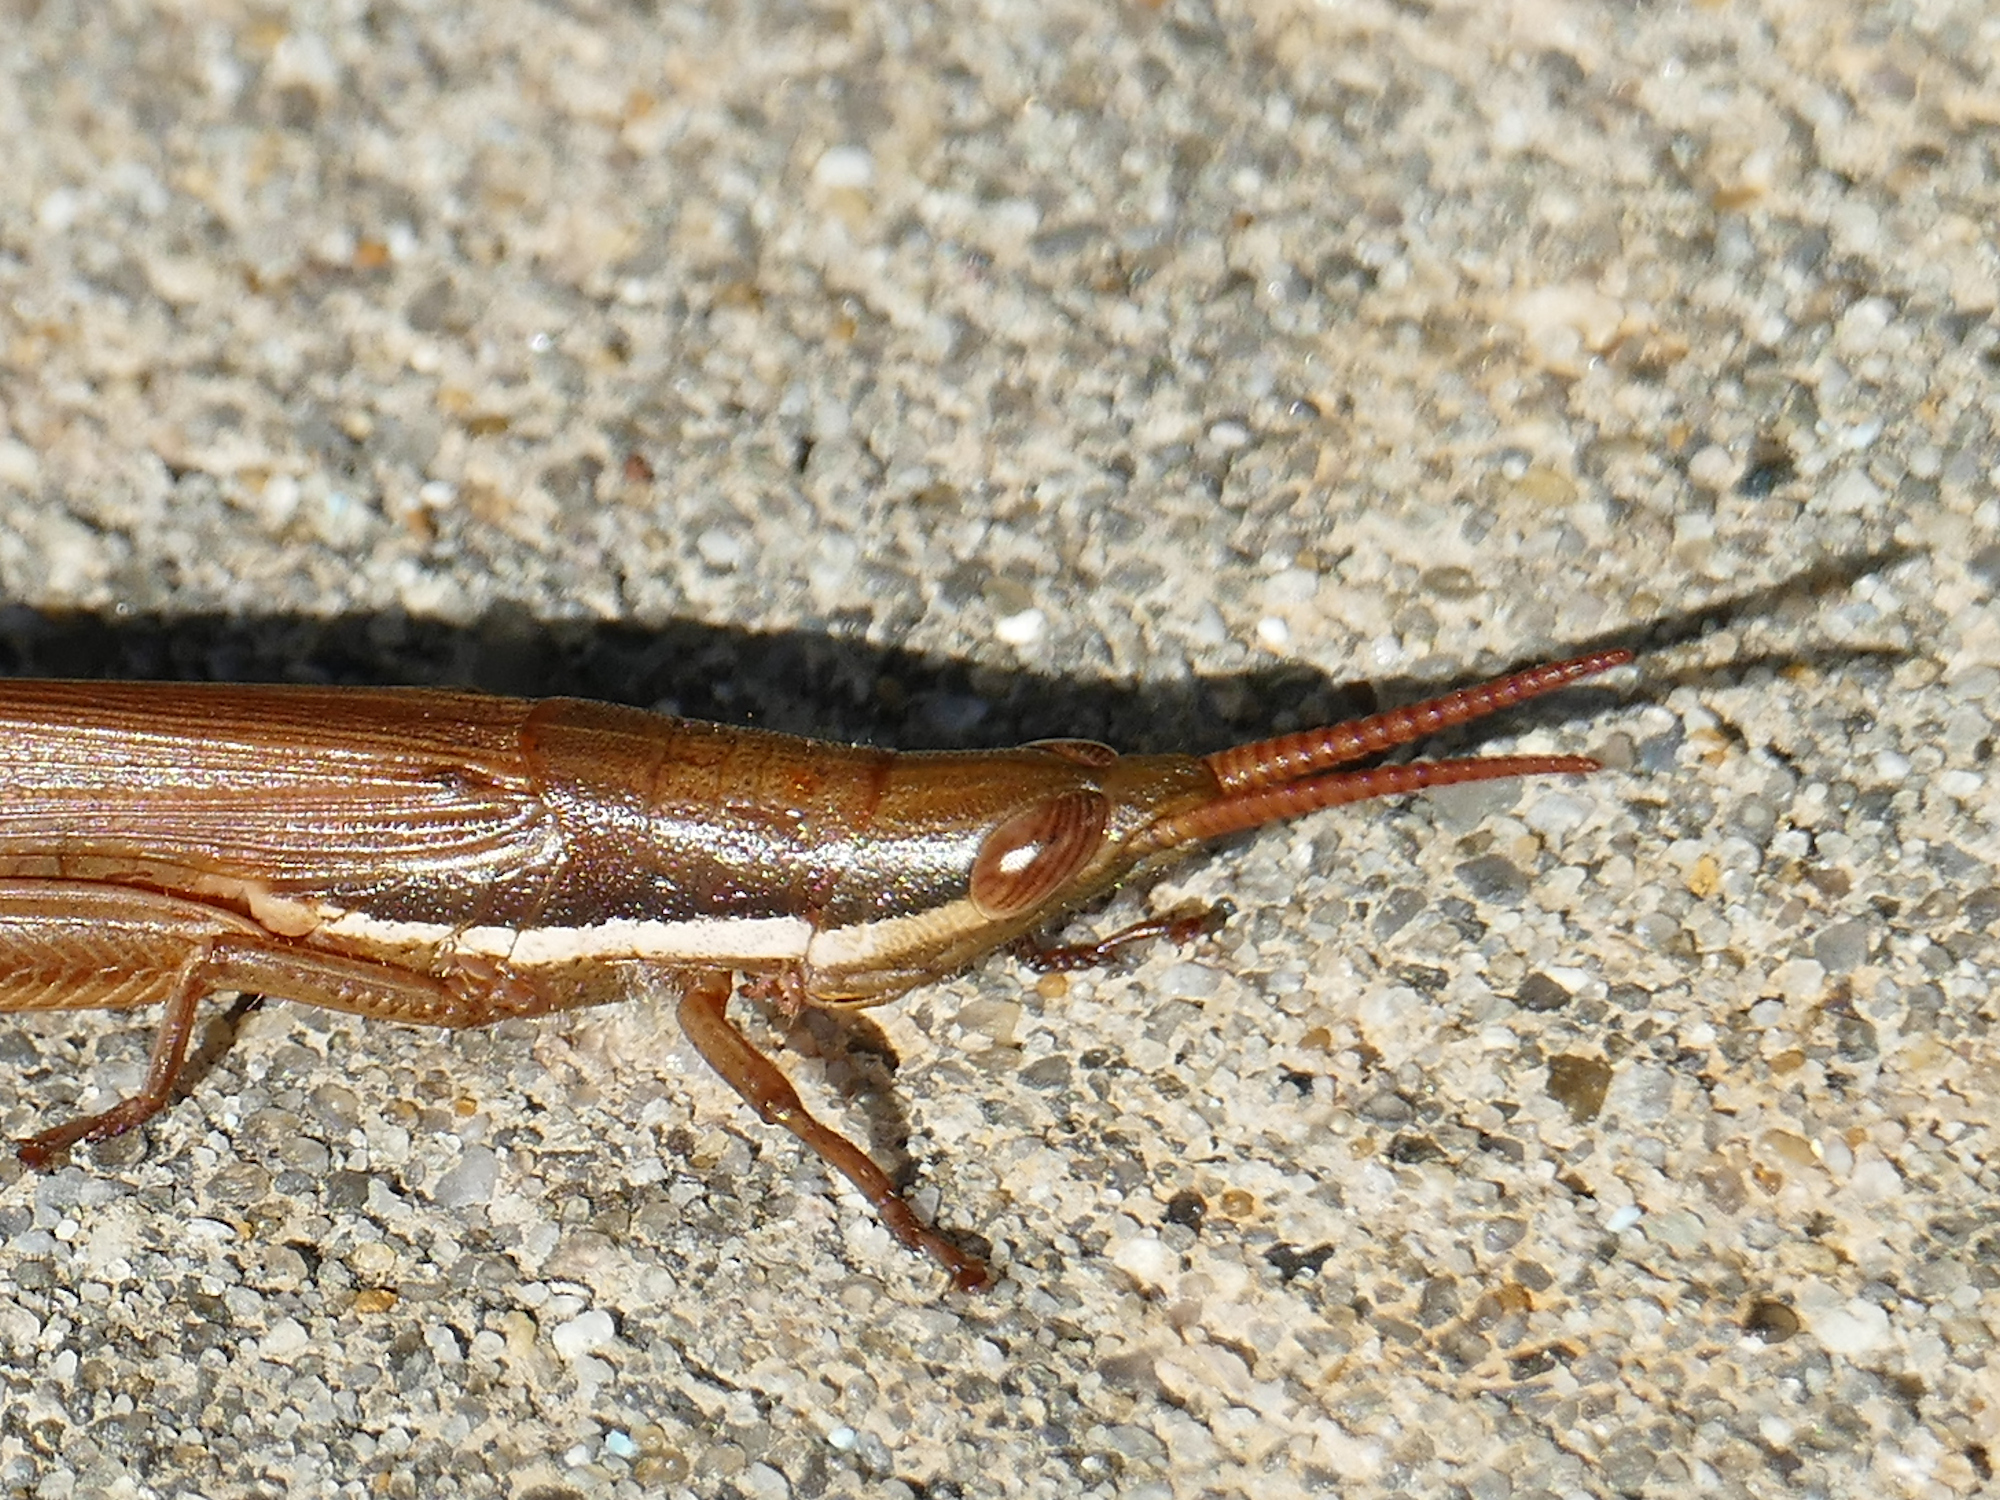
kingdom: Animalia
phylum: Arthropoda
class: Insecta
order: Orthoptera
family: Acrididae
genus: Leptysma
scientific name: Leptysma marginicollis
